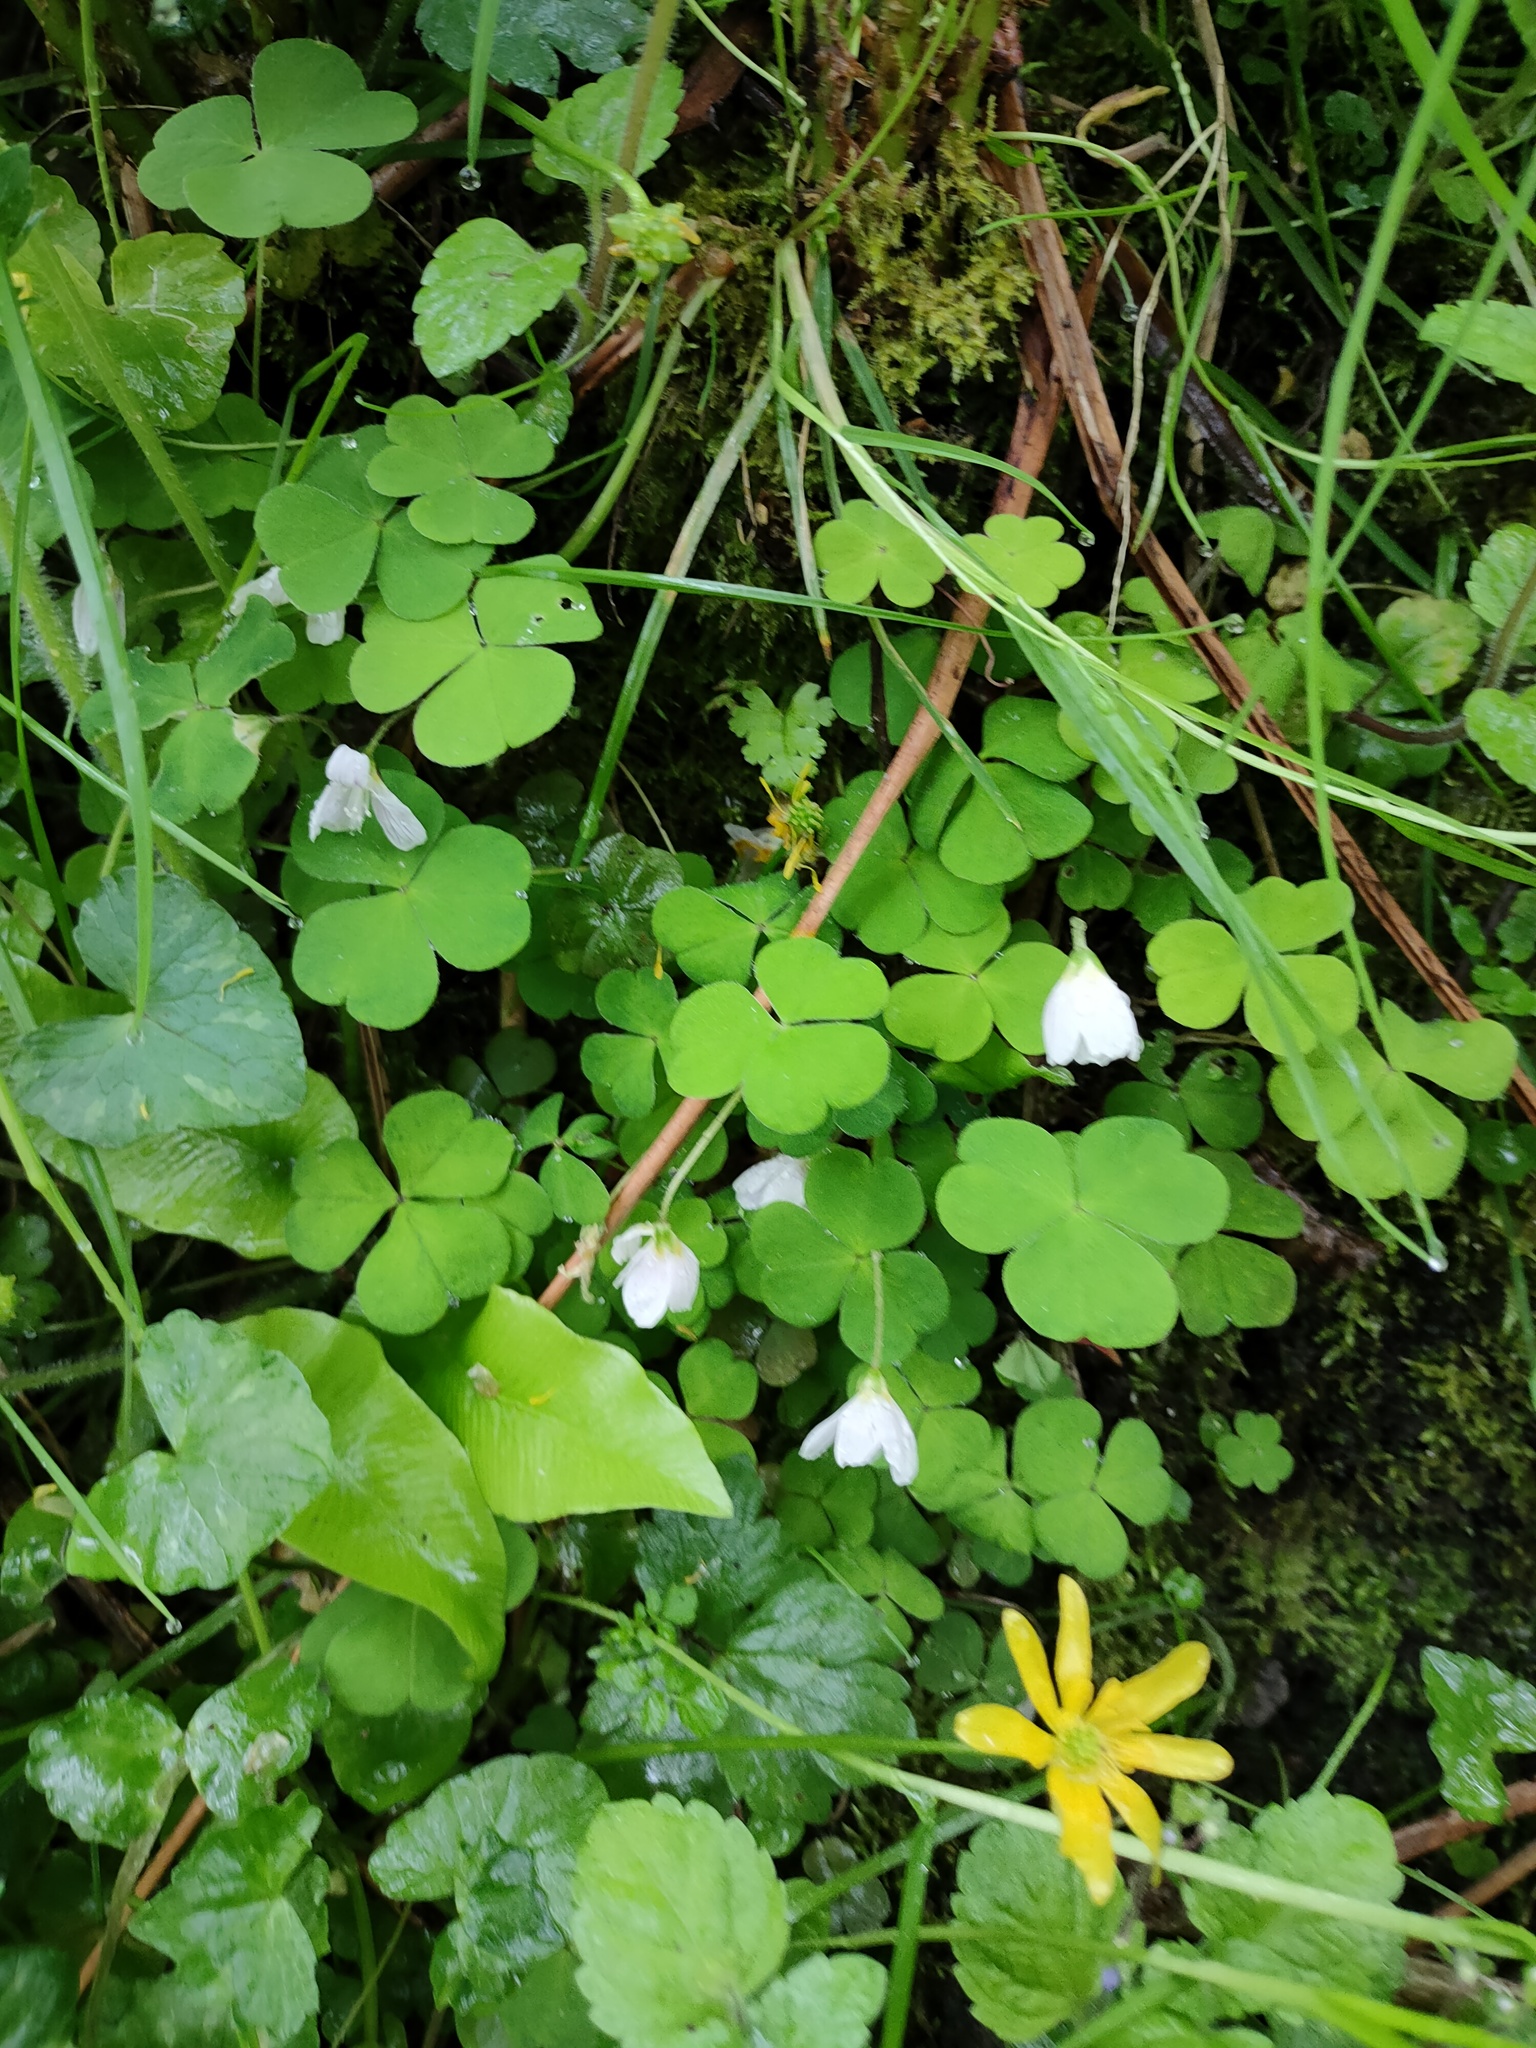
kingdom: Plantae
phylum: Tracheophyta
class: Magnoliopsida
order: Oxalidales
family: Oxalidaceae
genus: Oxalis
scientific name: Oxalis acetosella
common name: Wood-sorrel
